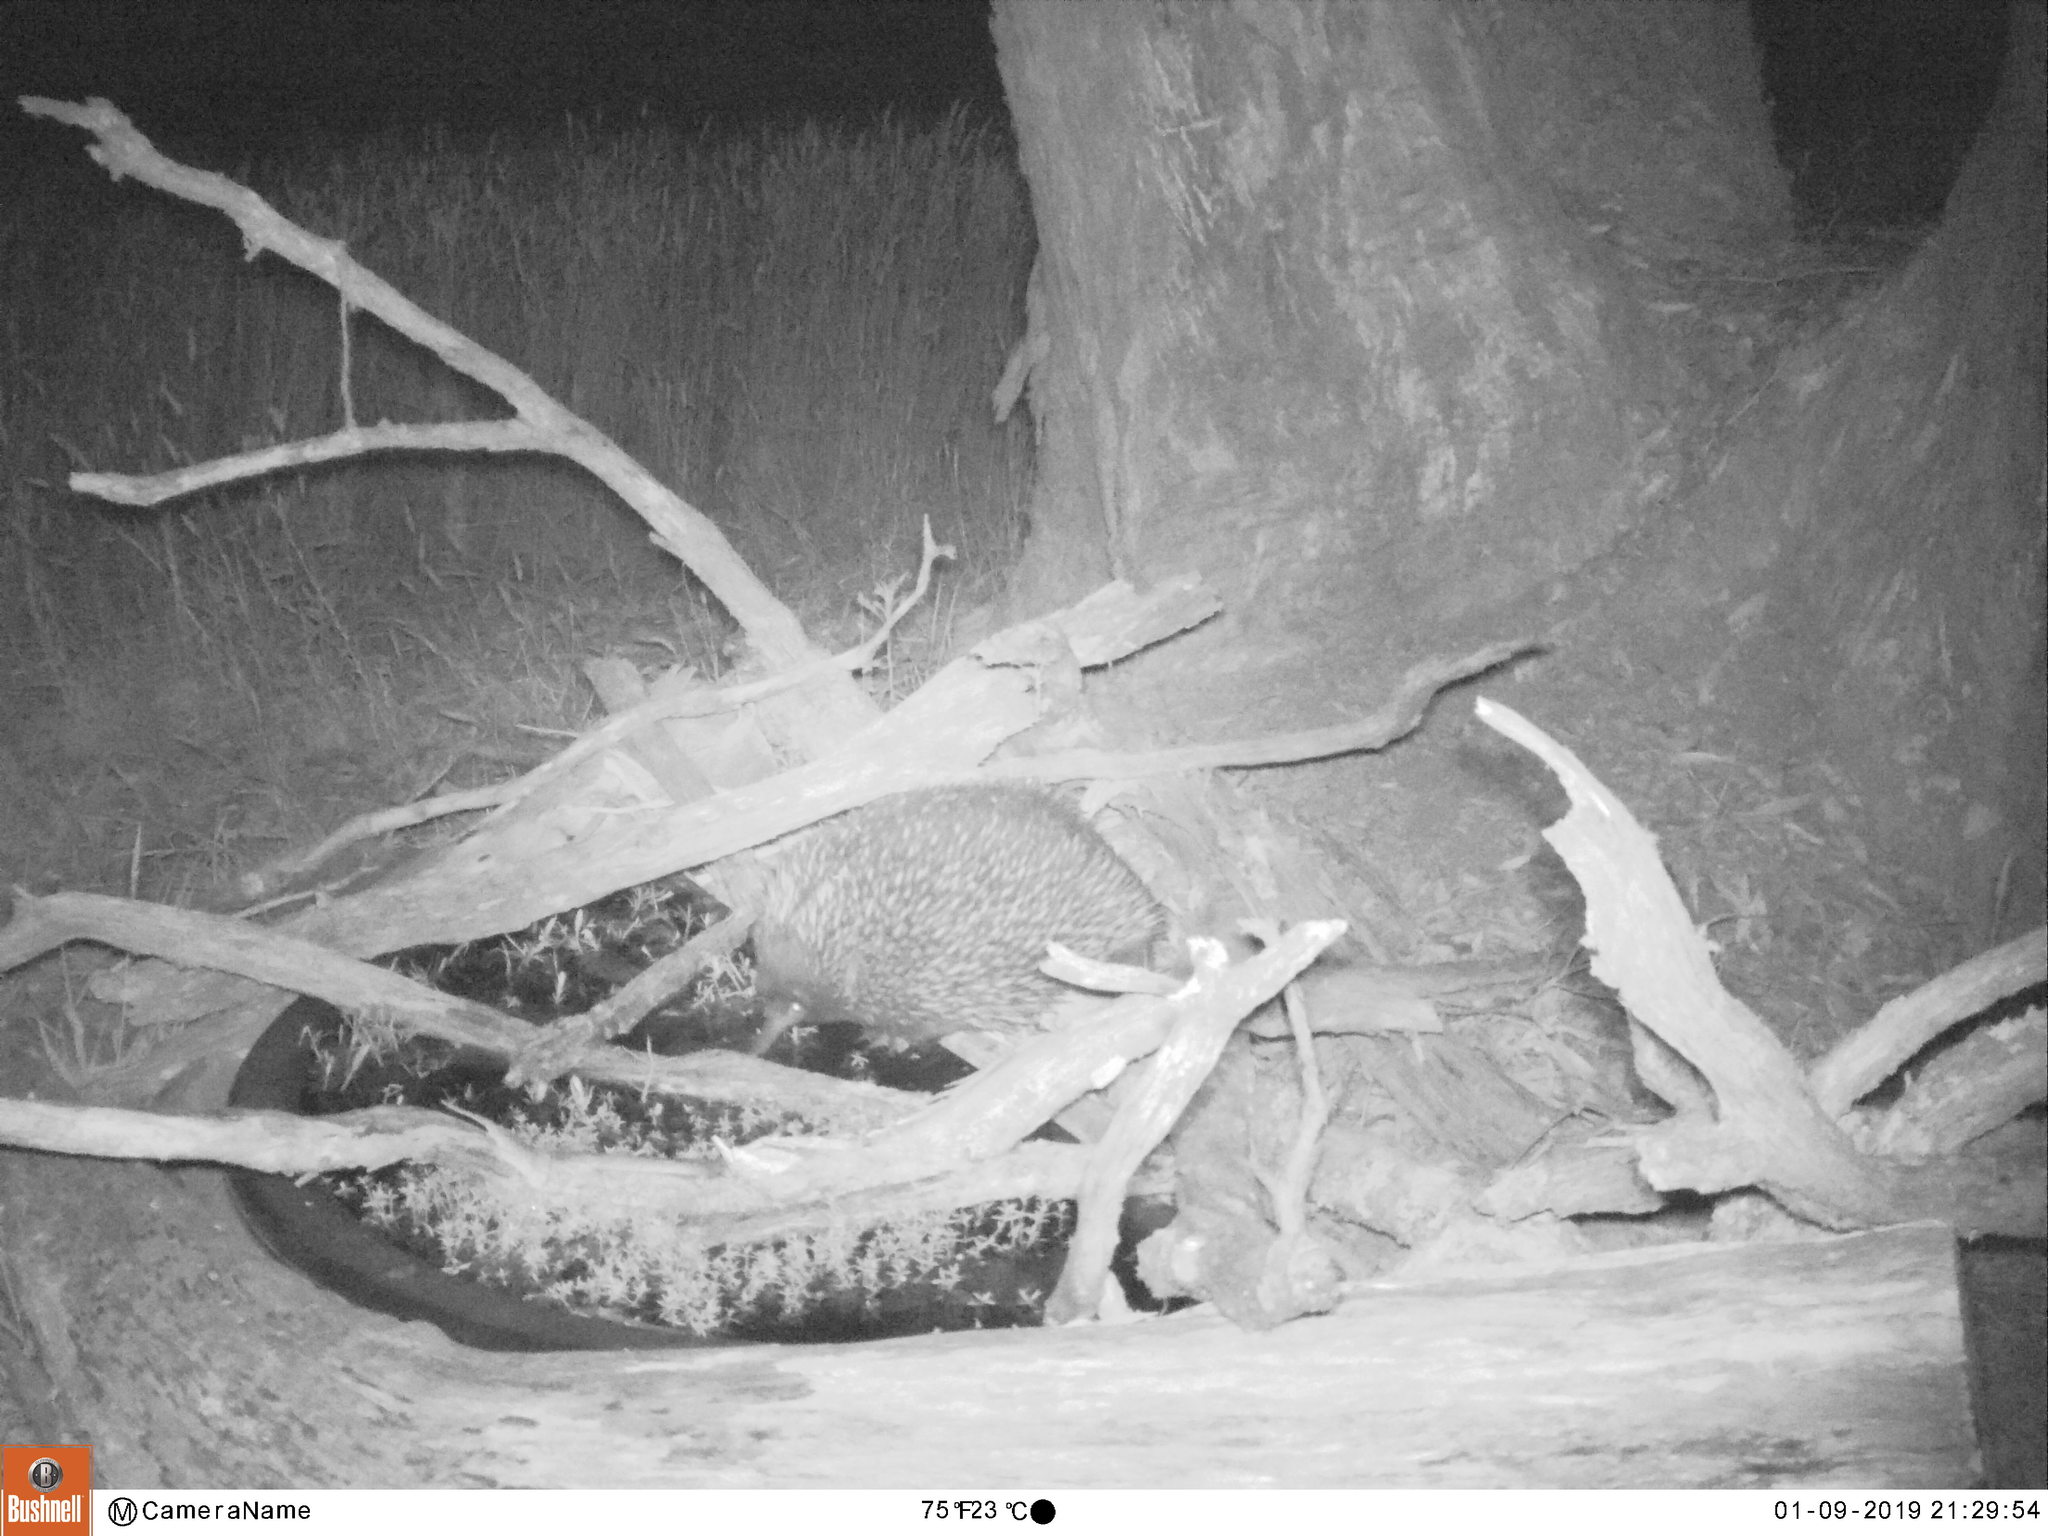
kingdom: Animalia
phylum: Chordata
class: Mammalia
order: Monotremata
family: Tachyglossidae
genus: Tachyglossus
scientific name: Tachyglossus aculeatus
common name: Short-beaked echidna
